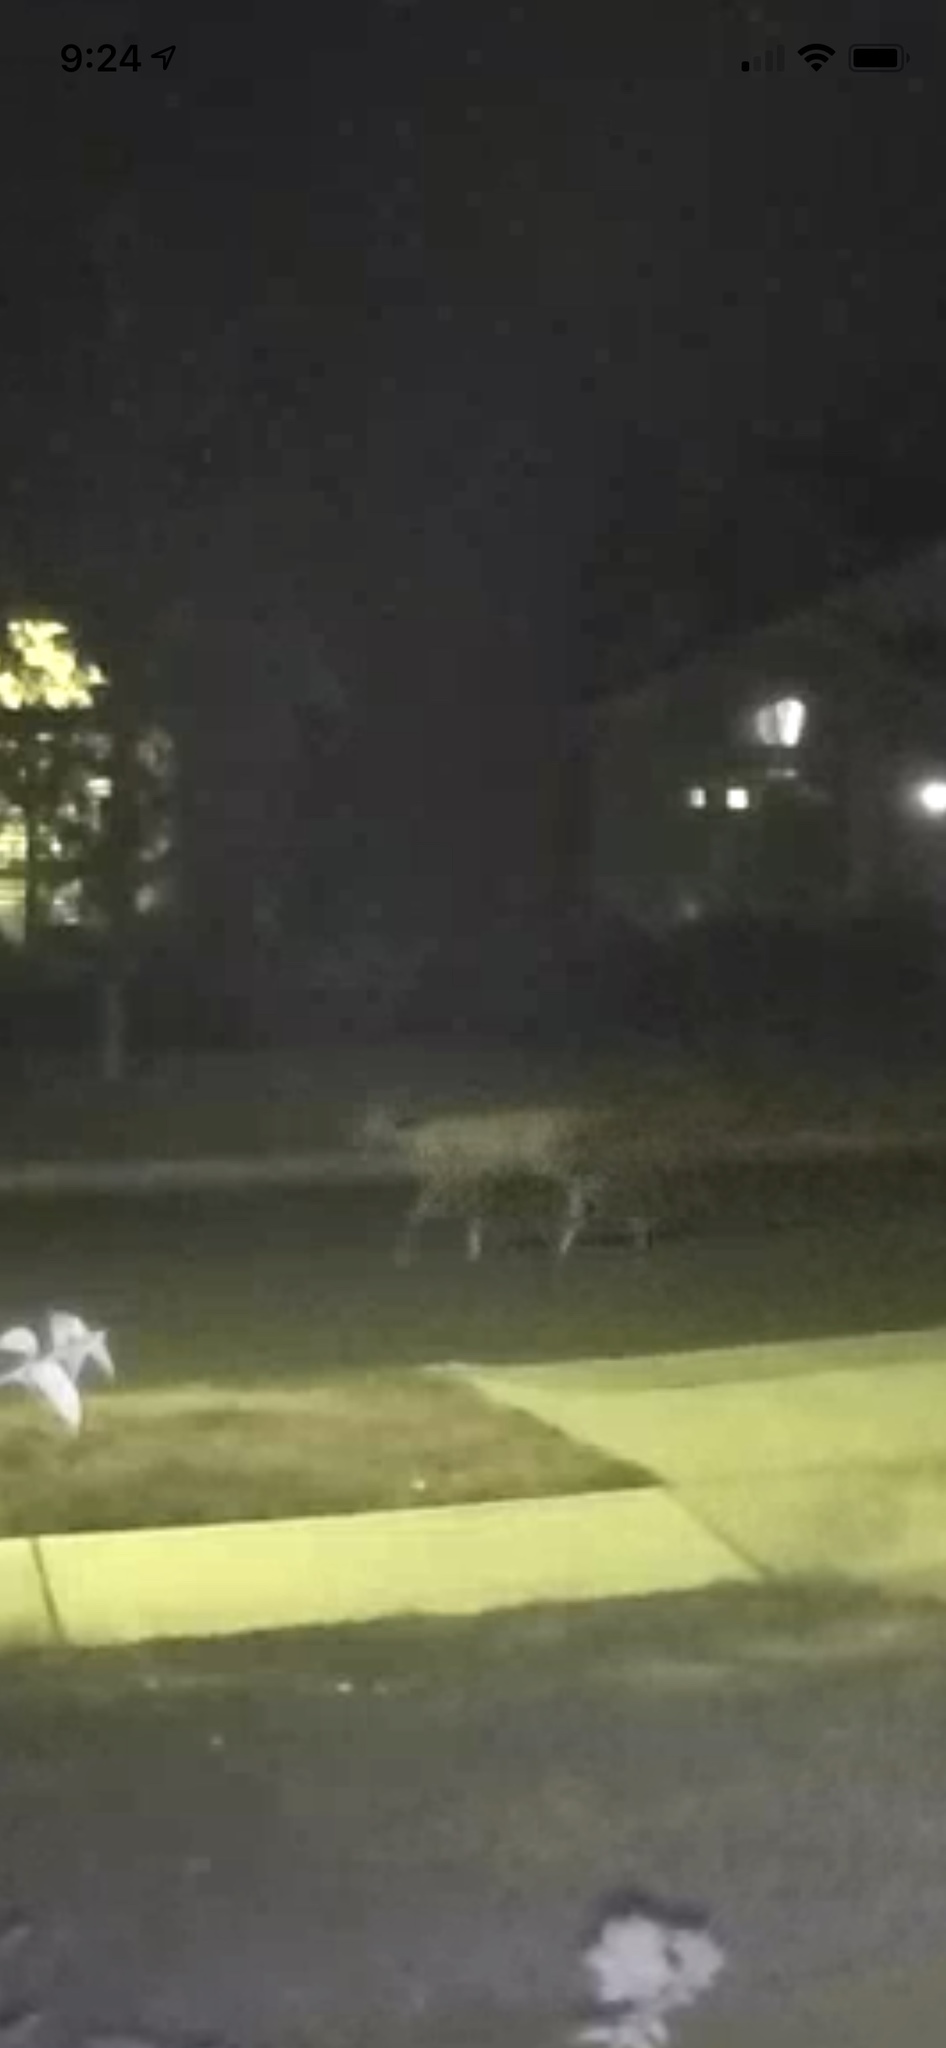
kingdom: Animalia
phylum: Chordata
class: Mammalia
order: Artiodactyla
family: Cervidae
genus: Odocoileus
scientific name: Odocoileus hemionus
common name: Mule deer
